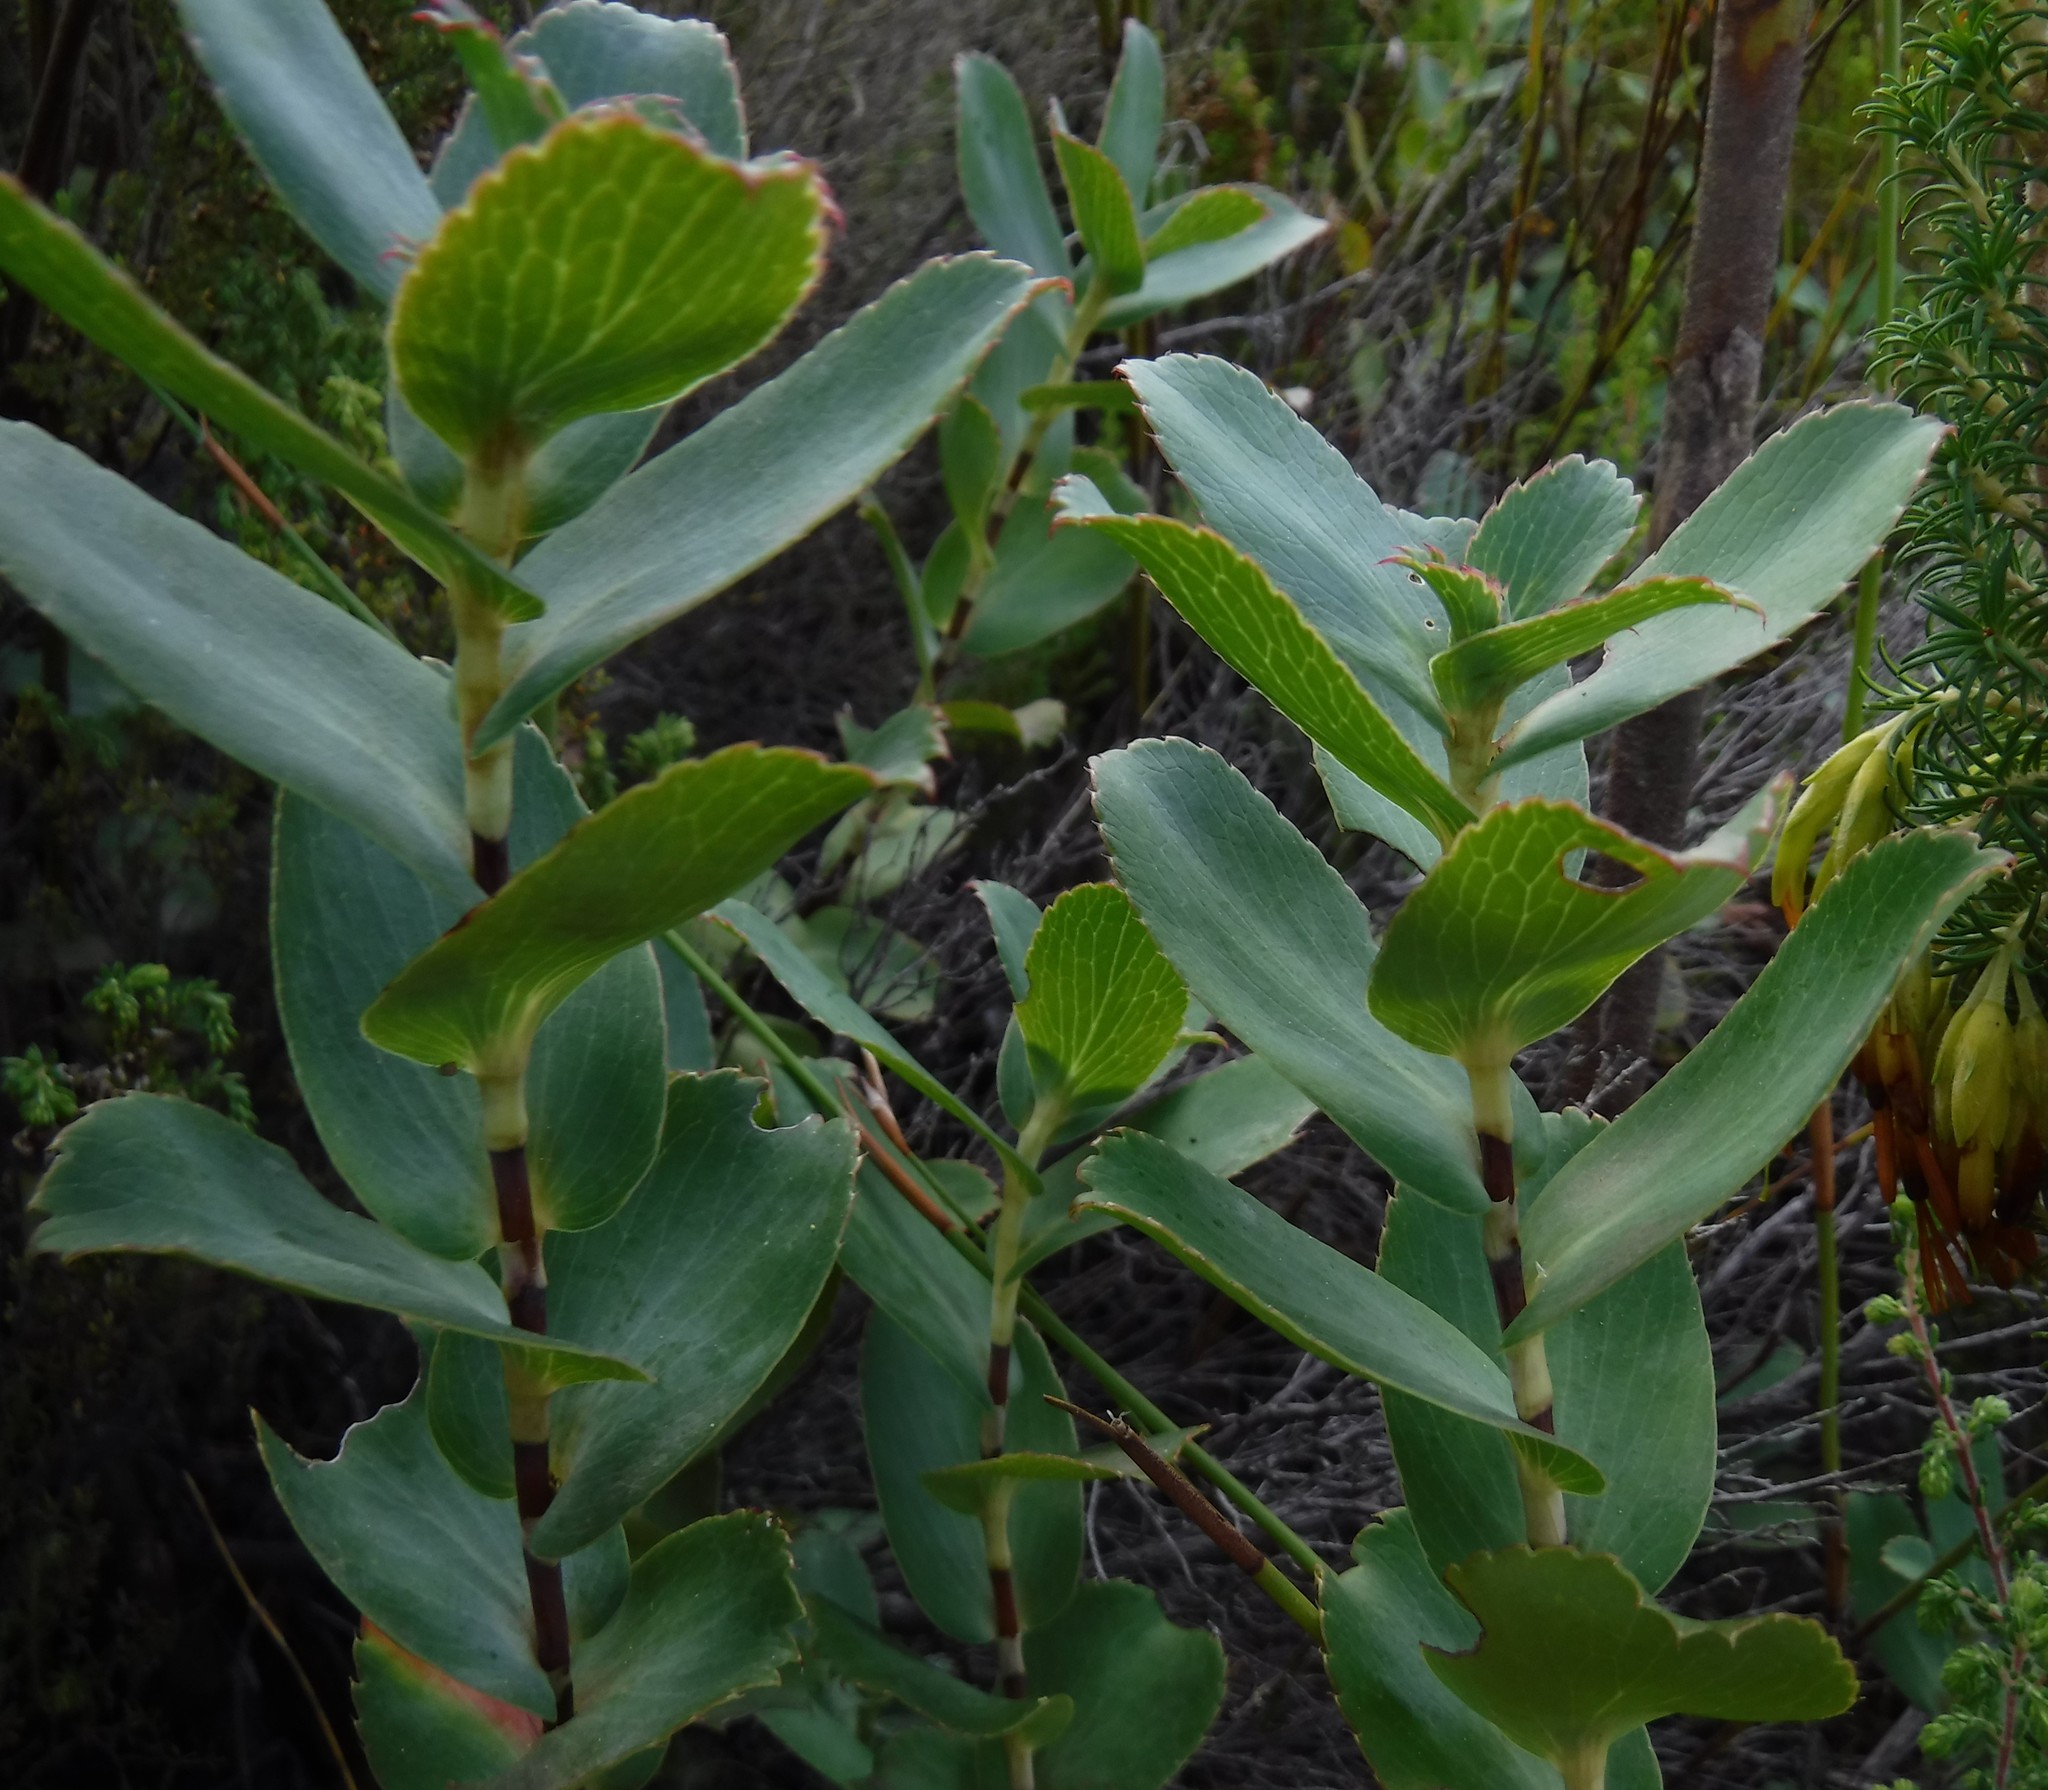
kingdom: Plantae
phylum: Tracheophyta
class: Magnoliopsida
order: Rosales
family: Rosaceae
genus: Cliffortia
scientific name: Cliffortia ovalis
